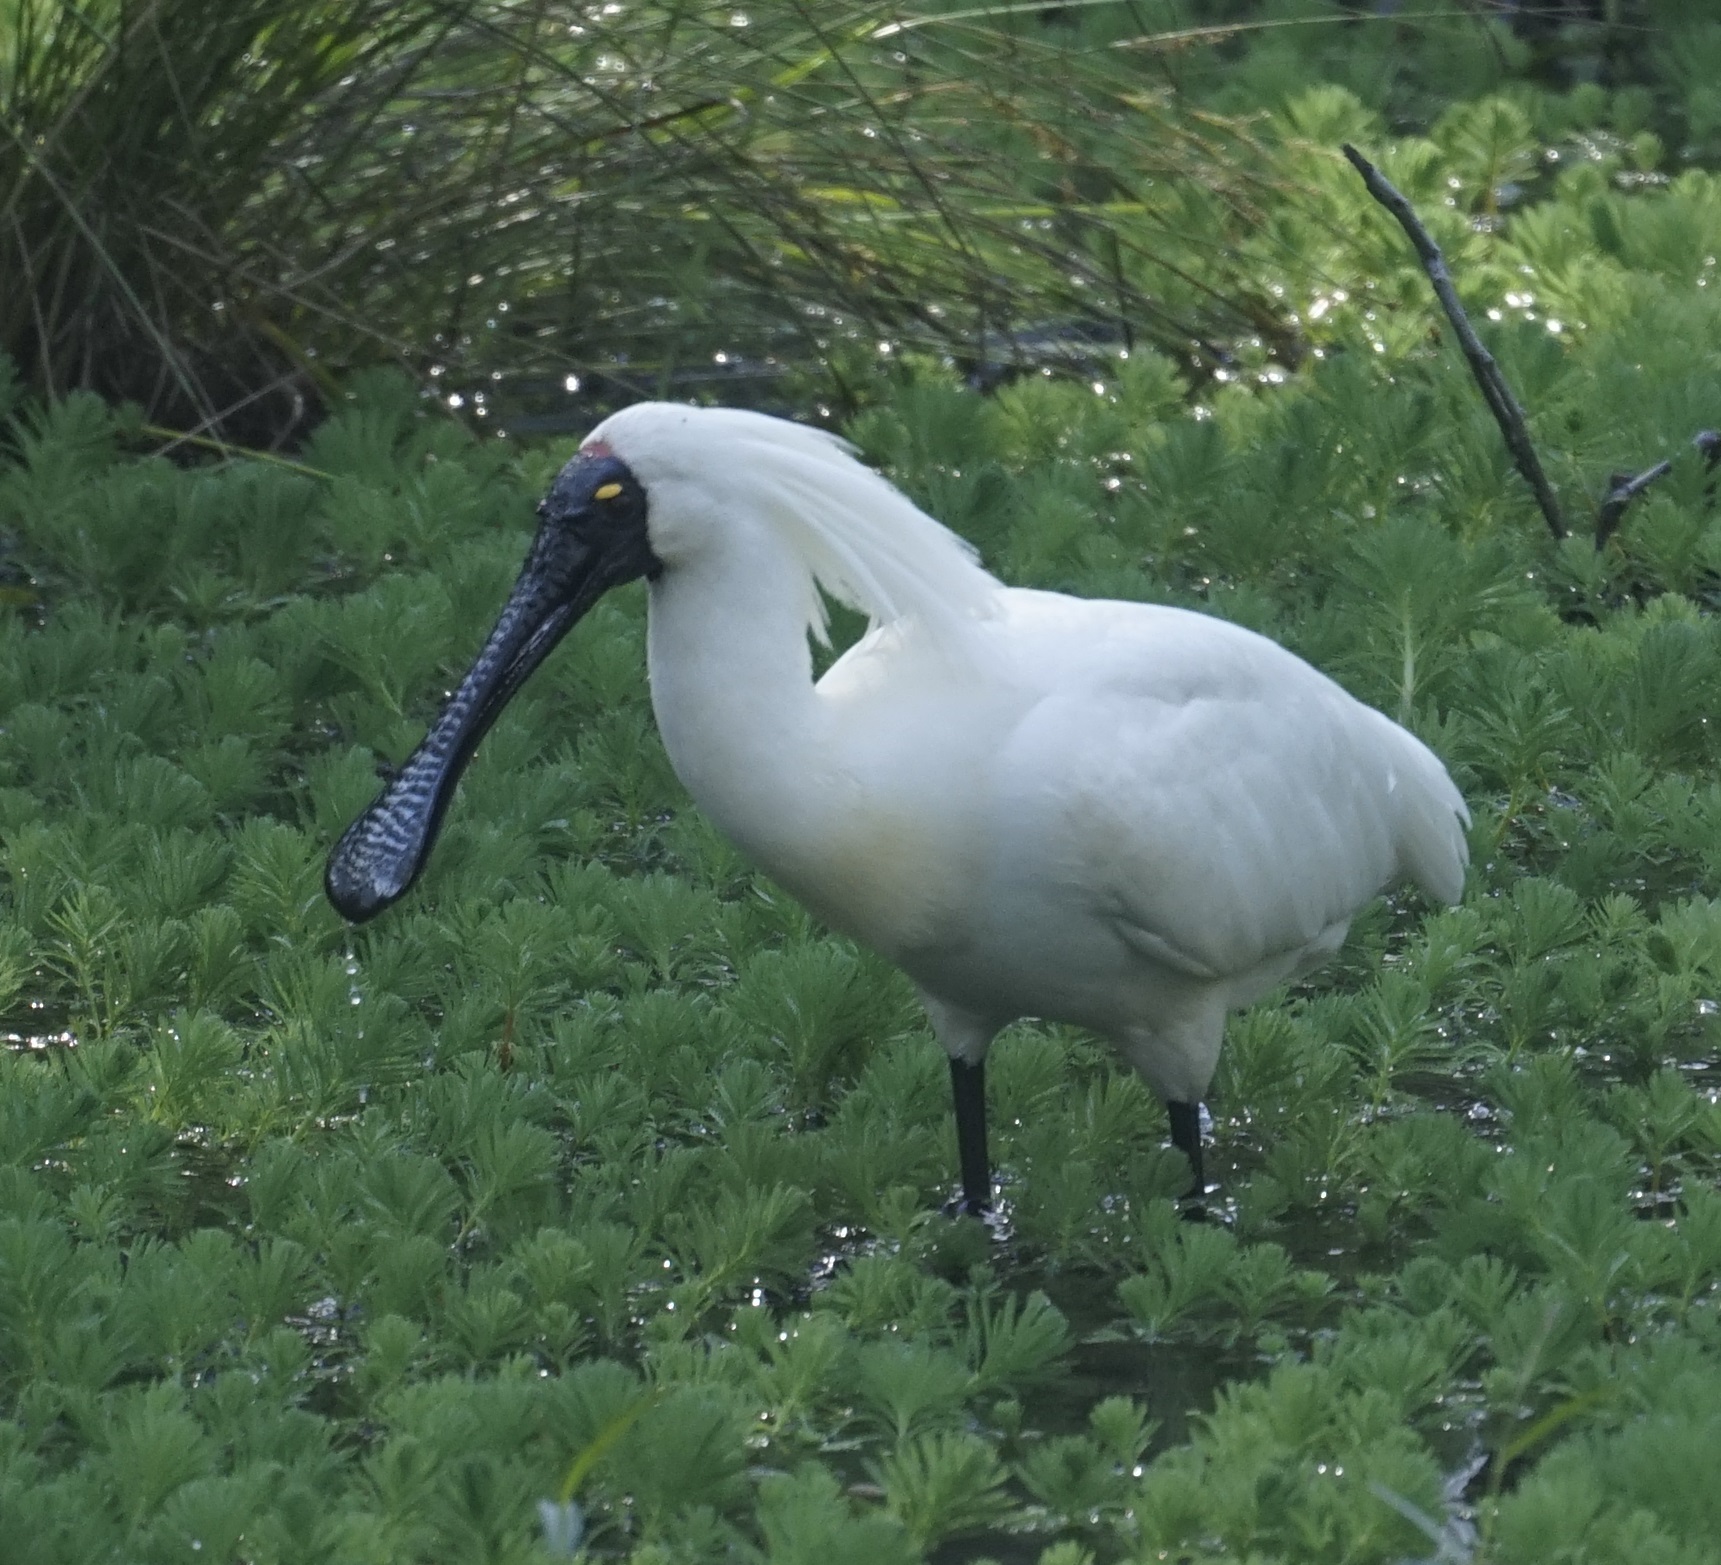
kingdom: Animalia
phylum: Chordata
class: Aves
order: Pelecaniformes
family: Threskiornithidae
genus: Platalea
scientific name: Platalea regia
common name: Royal spoonbill
